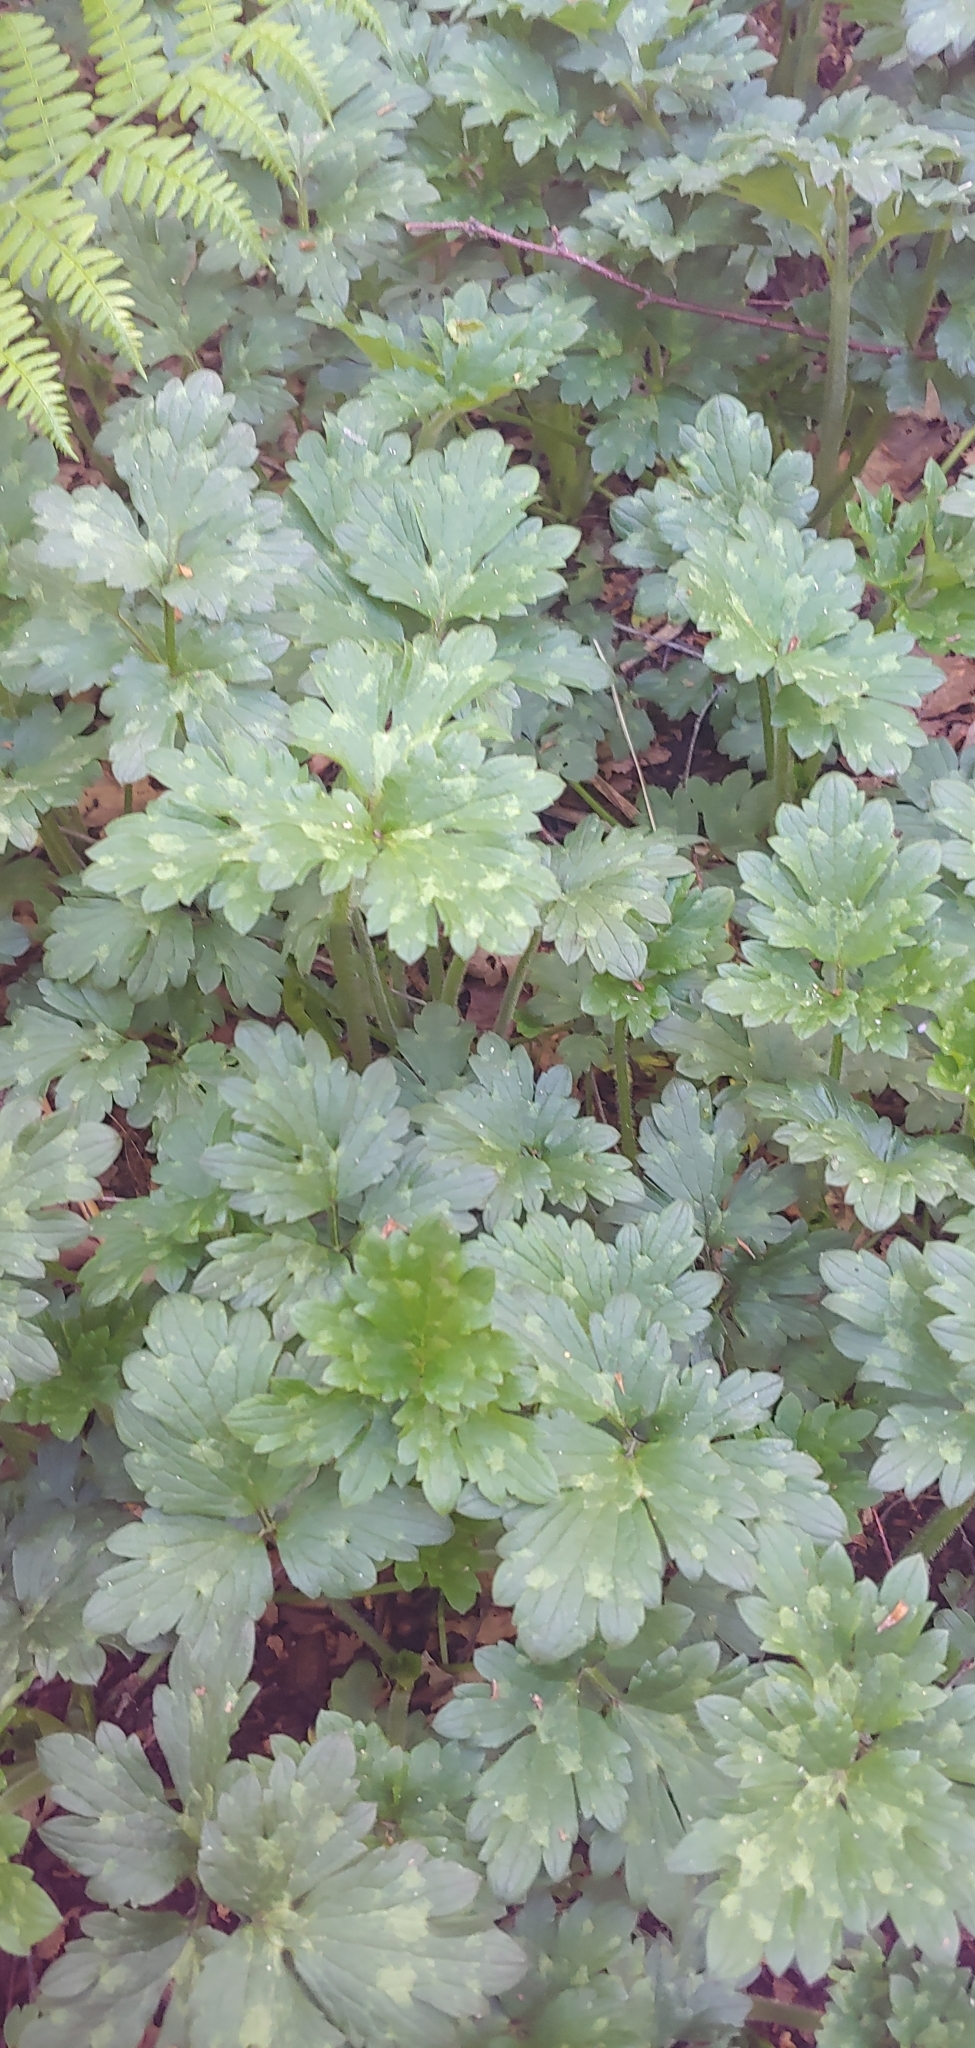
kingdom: Plantae
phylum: Tracheophyta
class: Magnoliopsida
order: Ranunculales
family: Ranunculaceae
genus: Ranunculus
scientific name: Ranunculus repens
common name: Creeping buttercup
